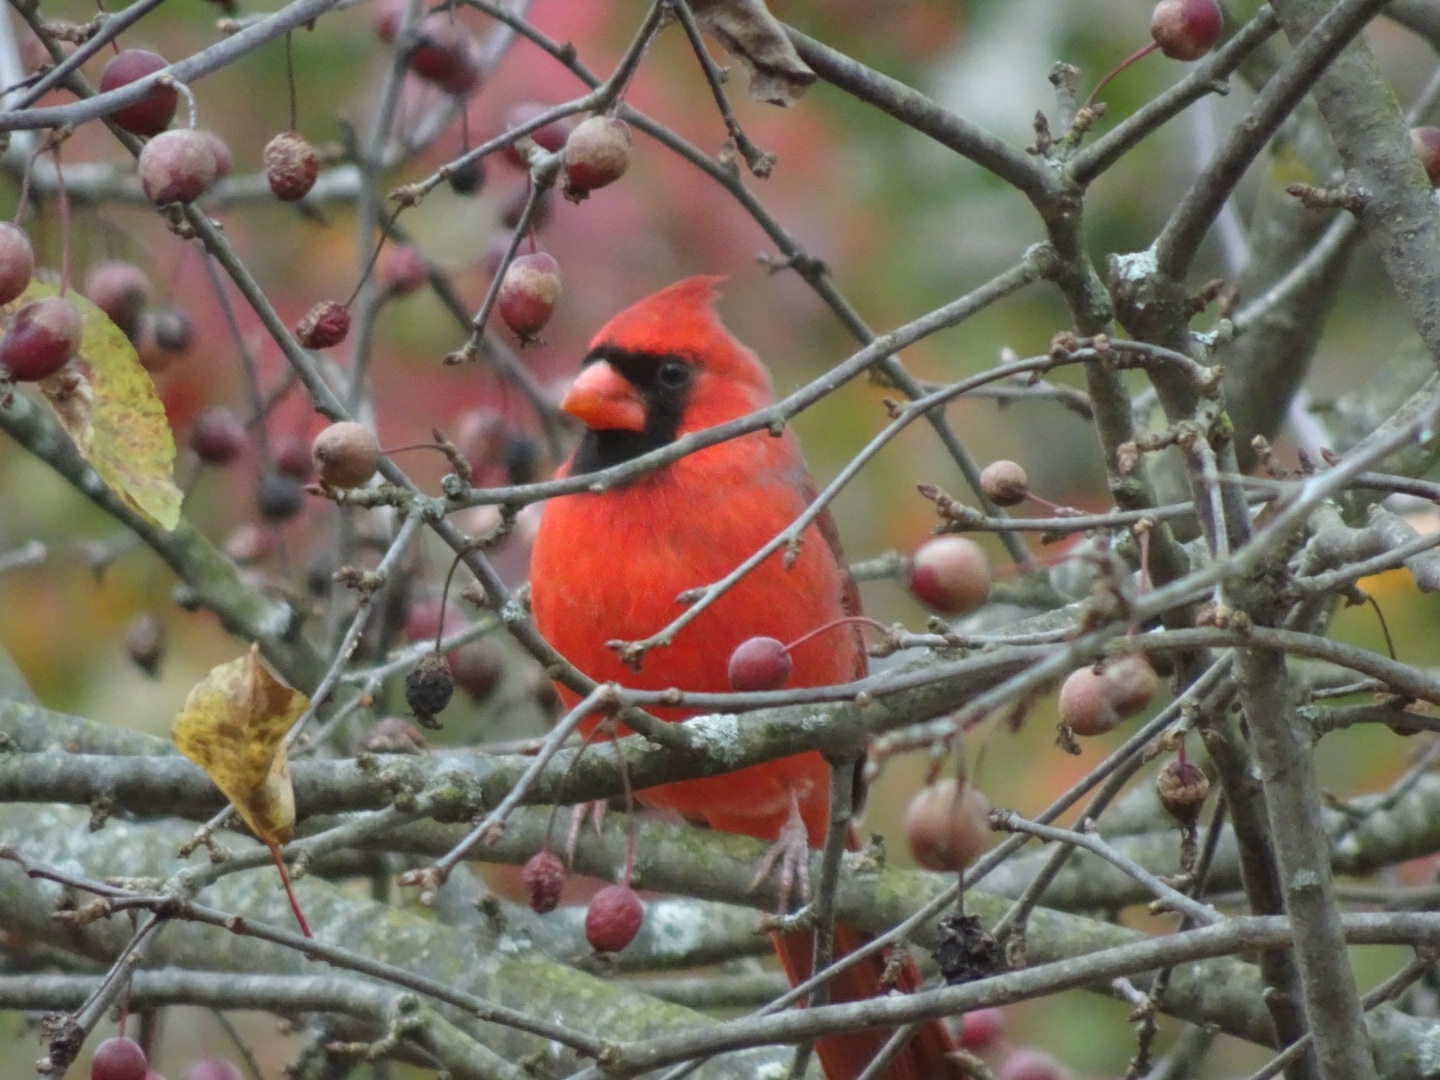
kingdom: Animalia
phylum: Chordata
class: Aves
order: Passeriformes
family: Cardinalidae
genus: Cardinalis
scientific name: Cardinalis cardinalis
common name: Northern cardinal
